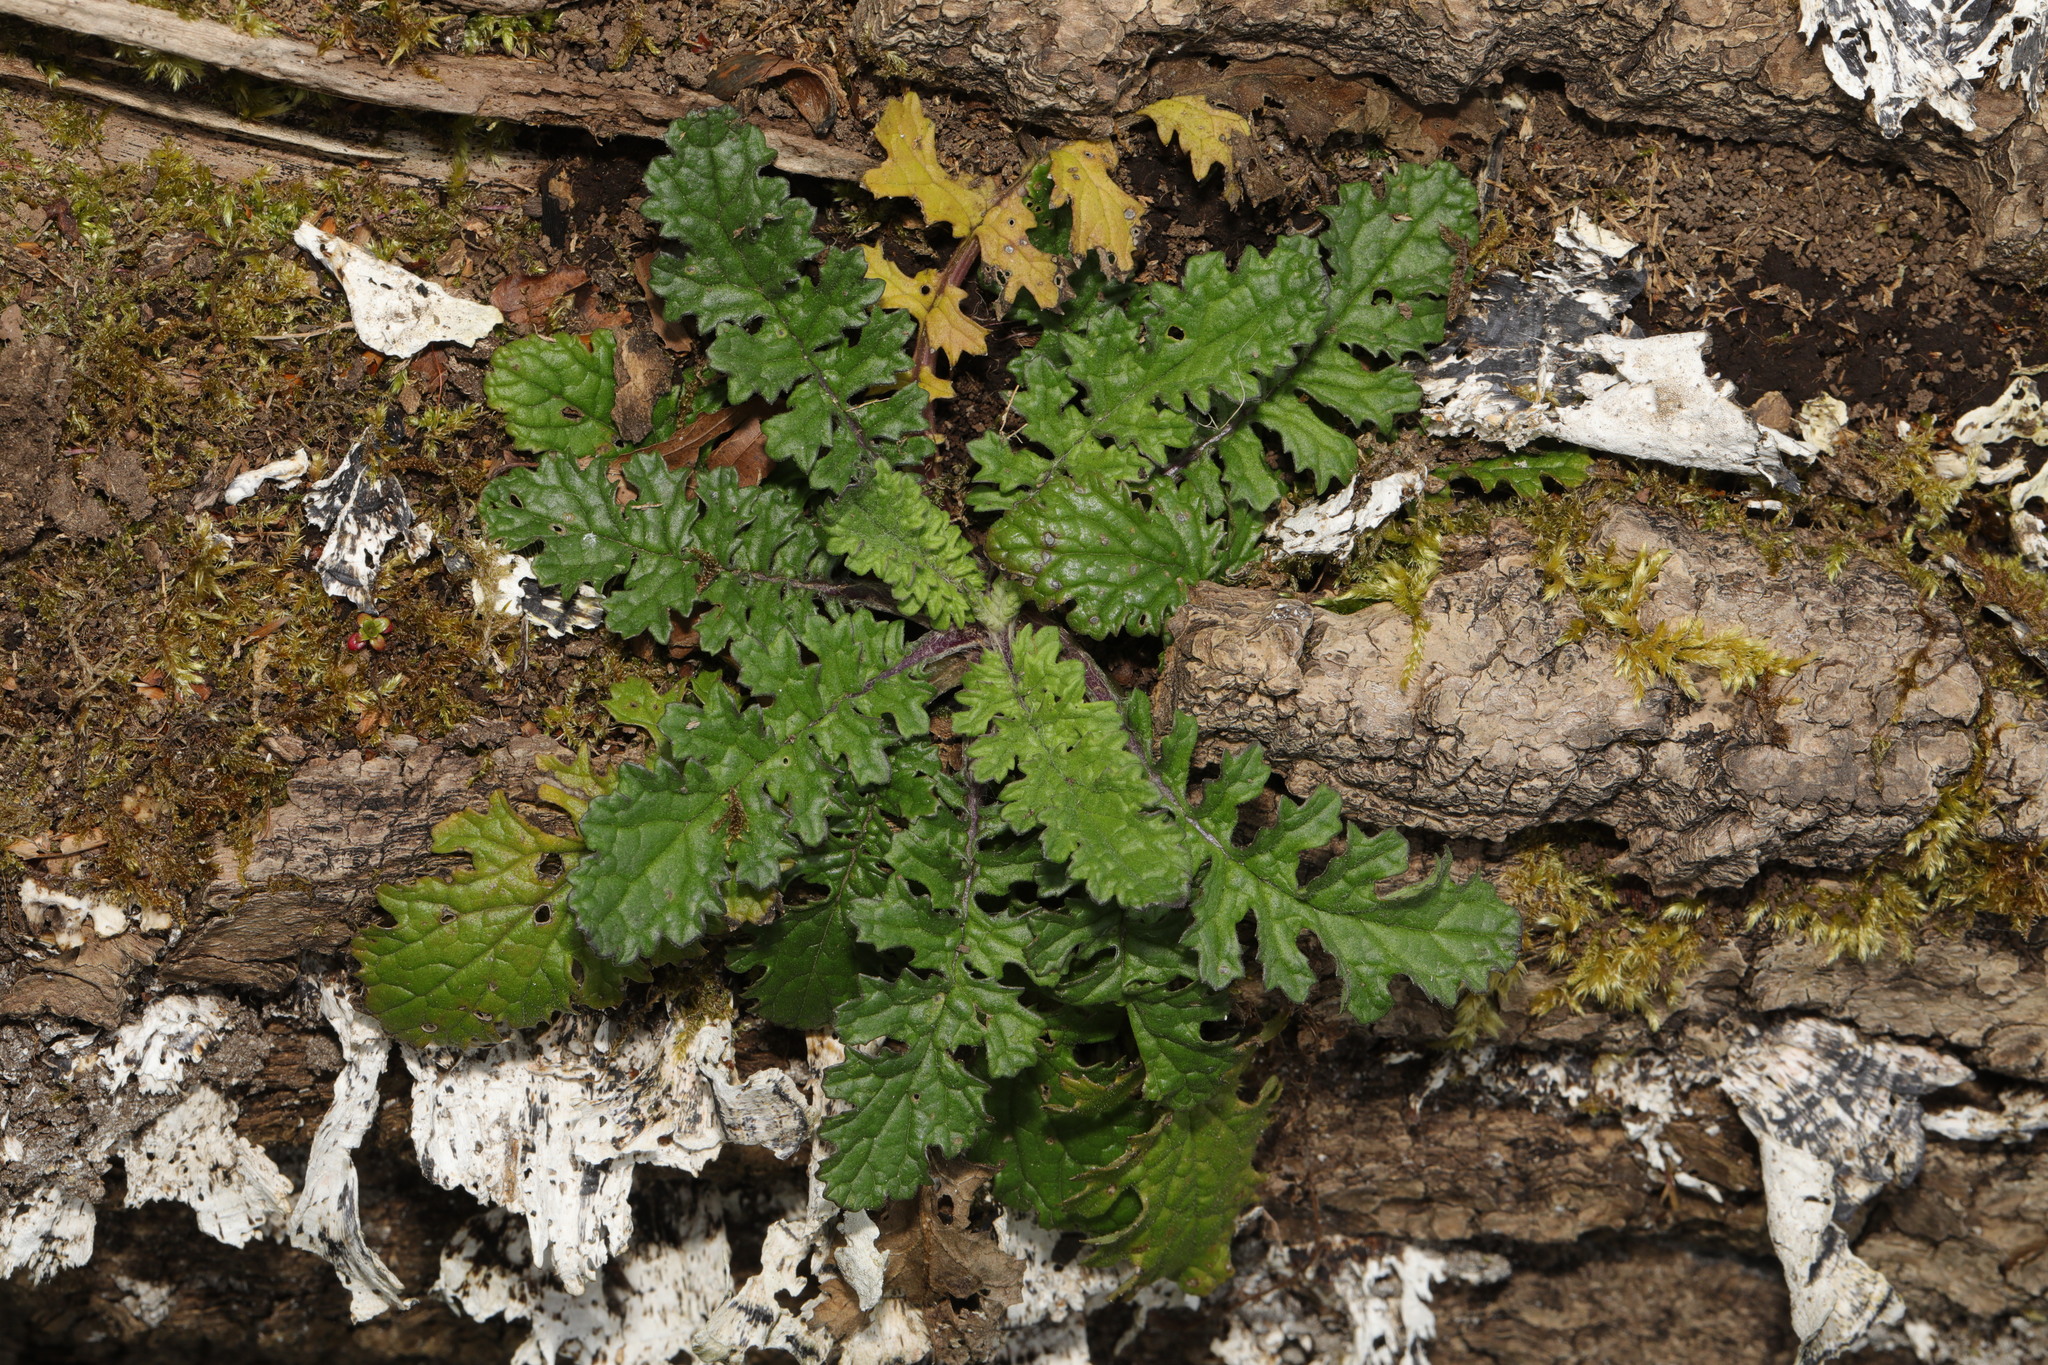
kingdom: Plantae
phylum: Tracheophyta
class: Magnoliopsida
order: Asterales
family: Asteraceae
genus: Jacobaea
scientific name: Jacobaea vulgaris
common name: Stinking willie
